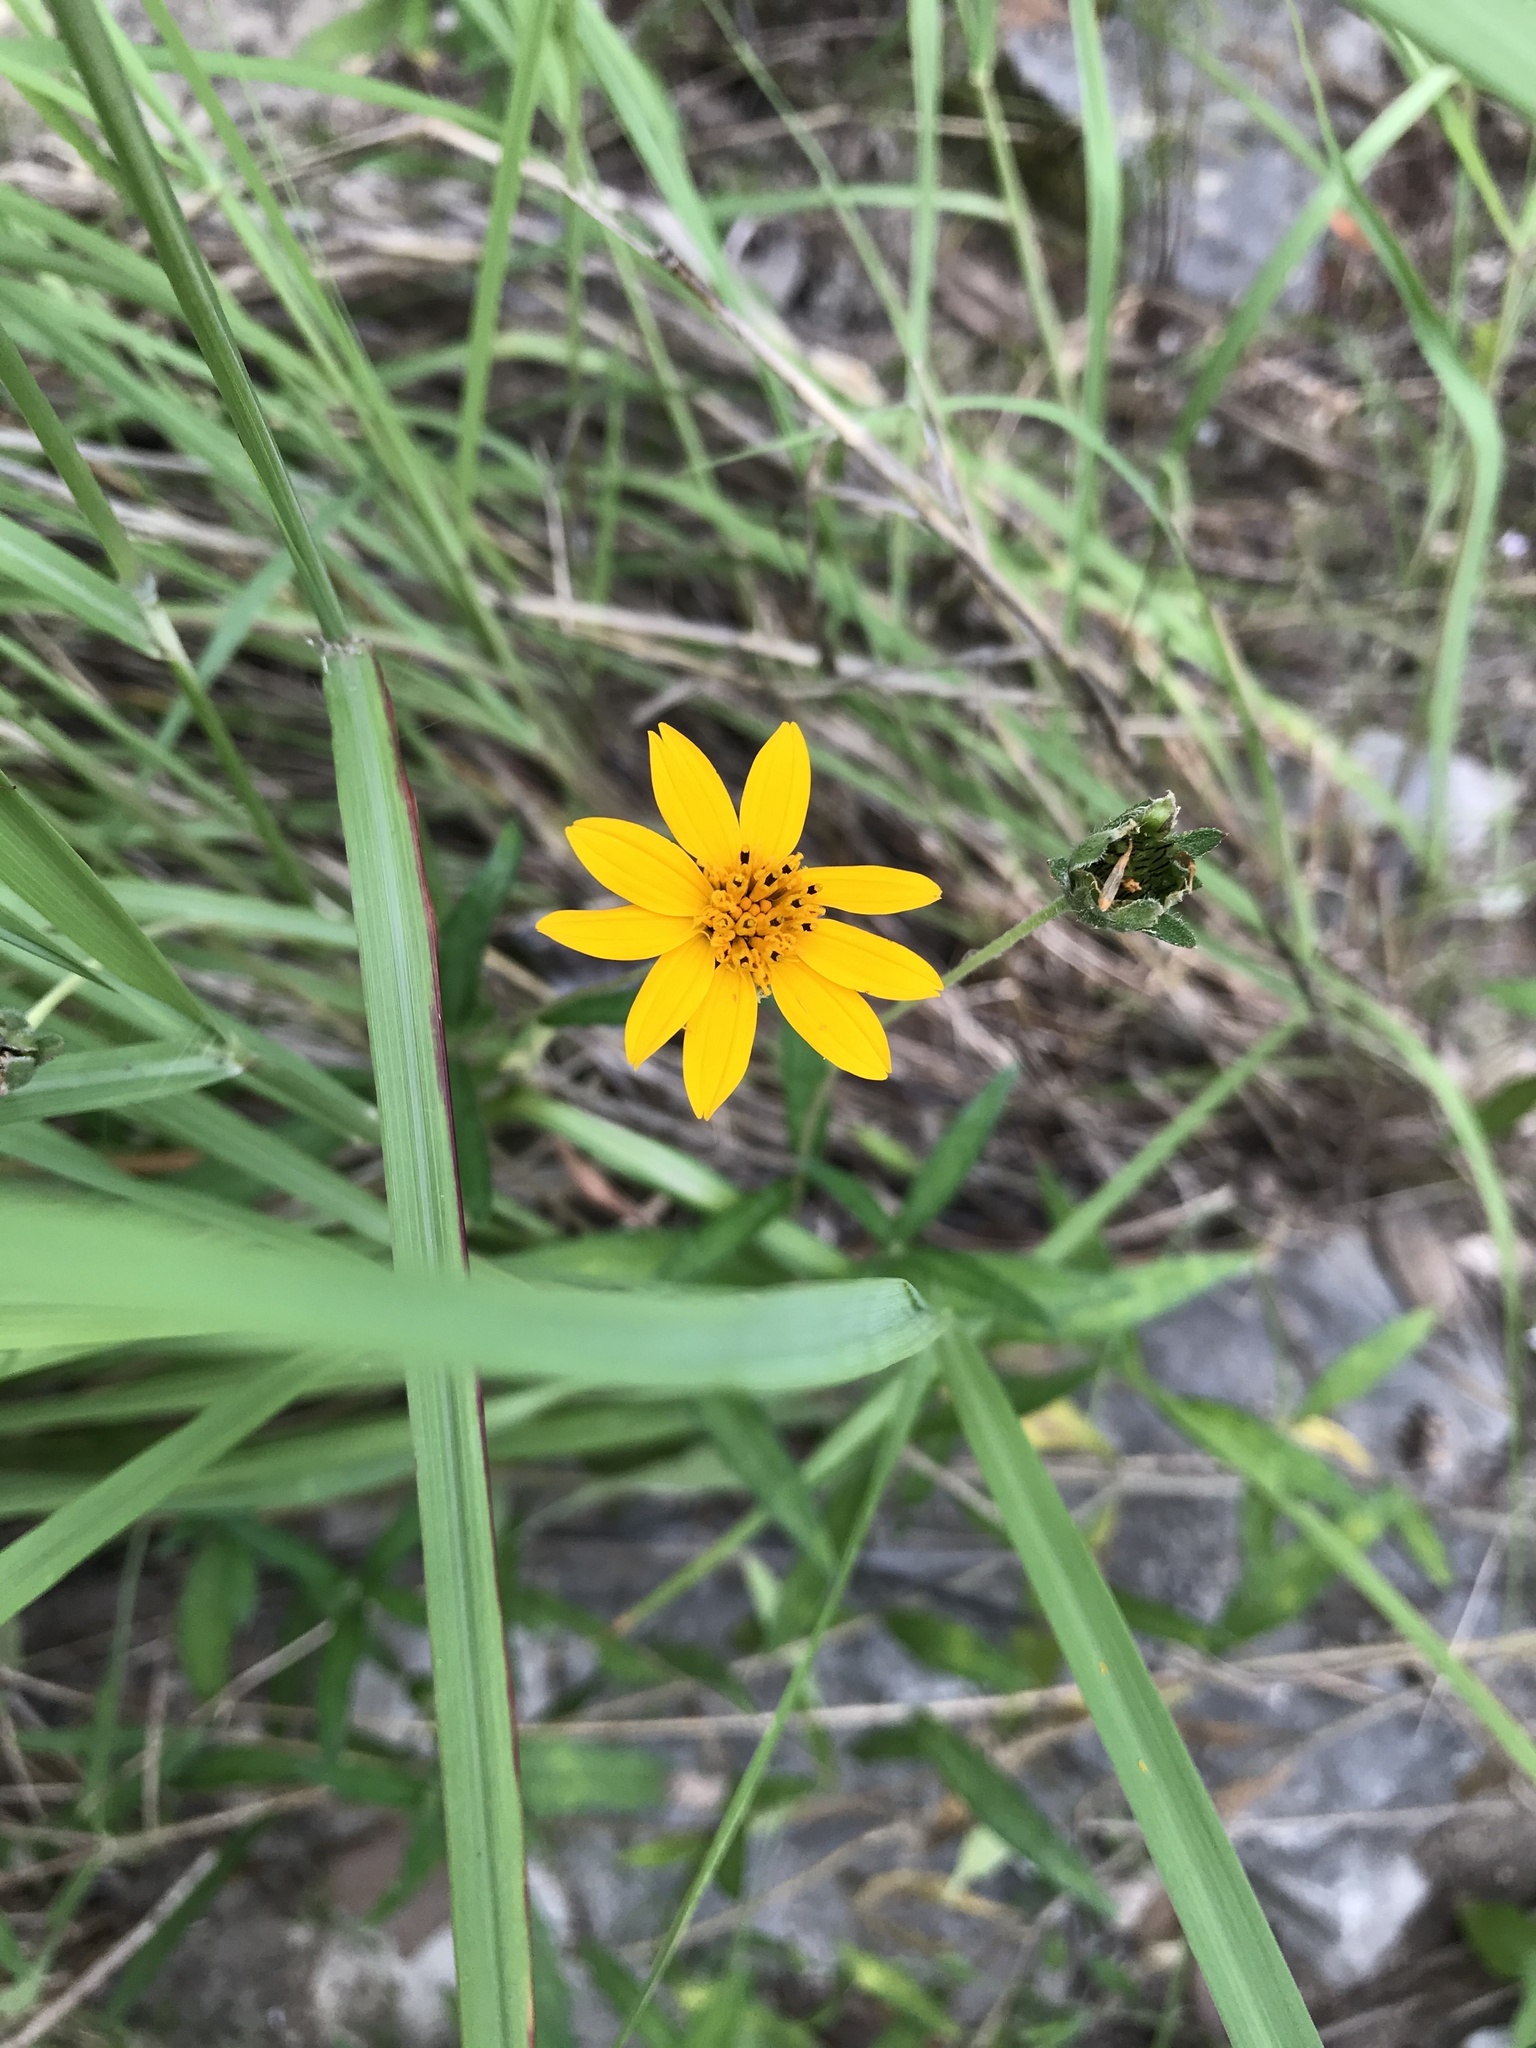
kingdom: Plantae
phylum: Tracheophyta
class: Magnoliopsida
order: Asterales
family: Asteraceae
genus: Wedelia
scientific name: Wedelia acapulcensis
